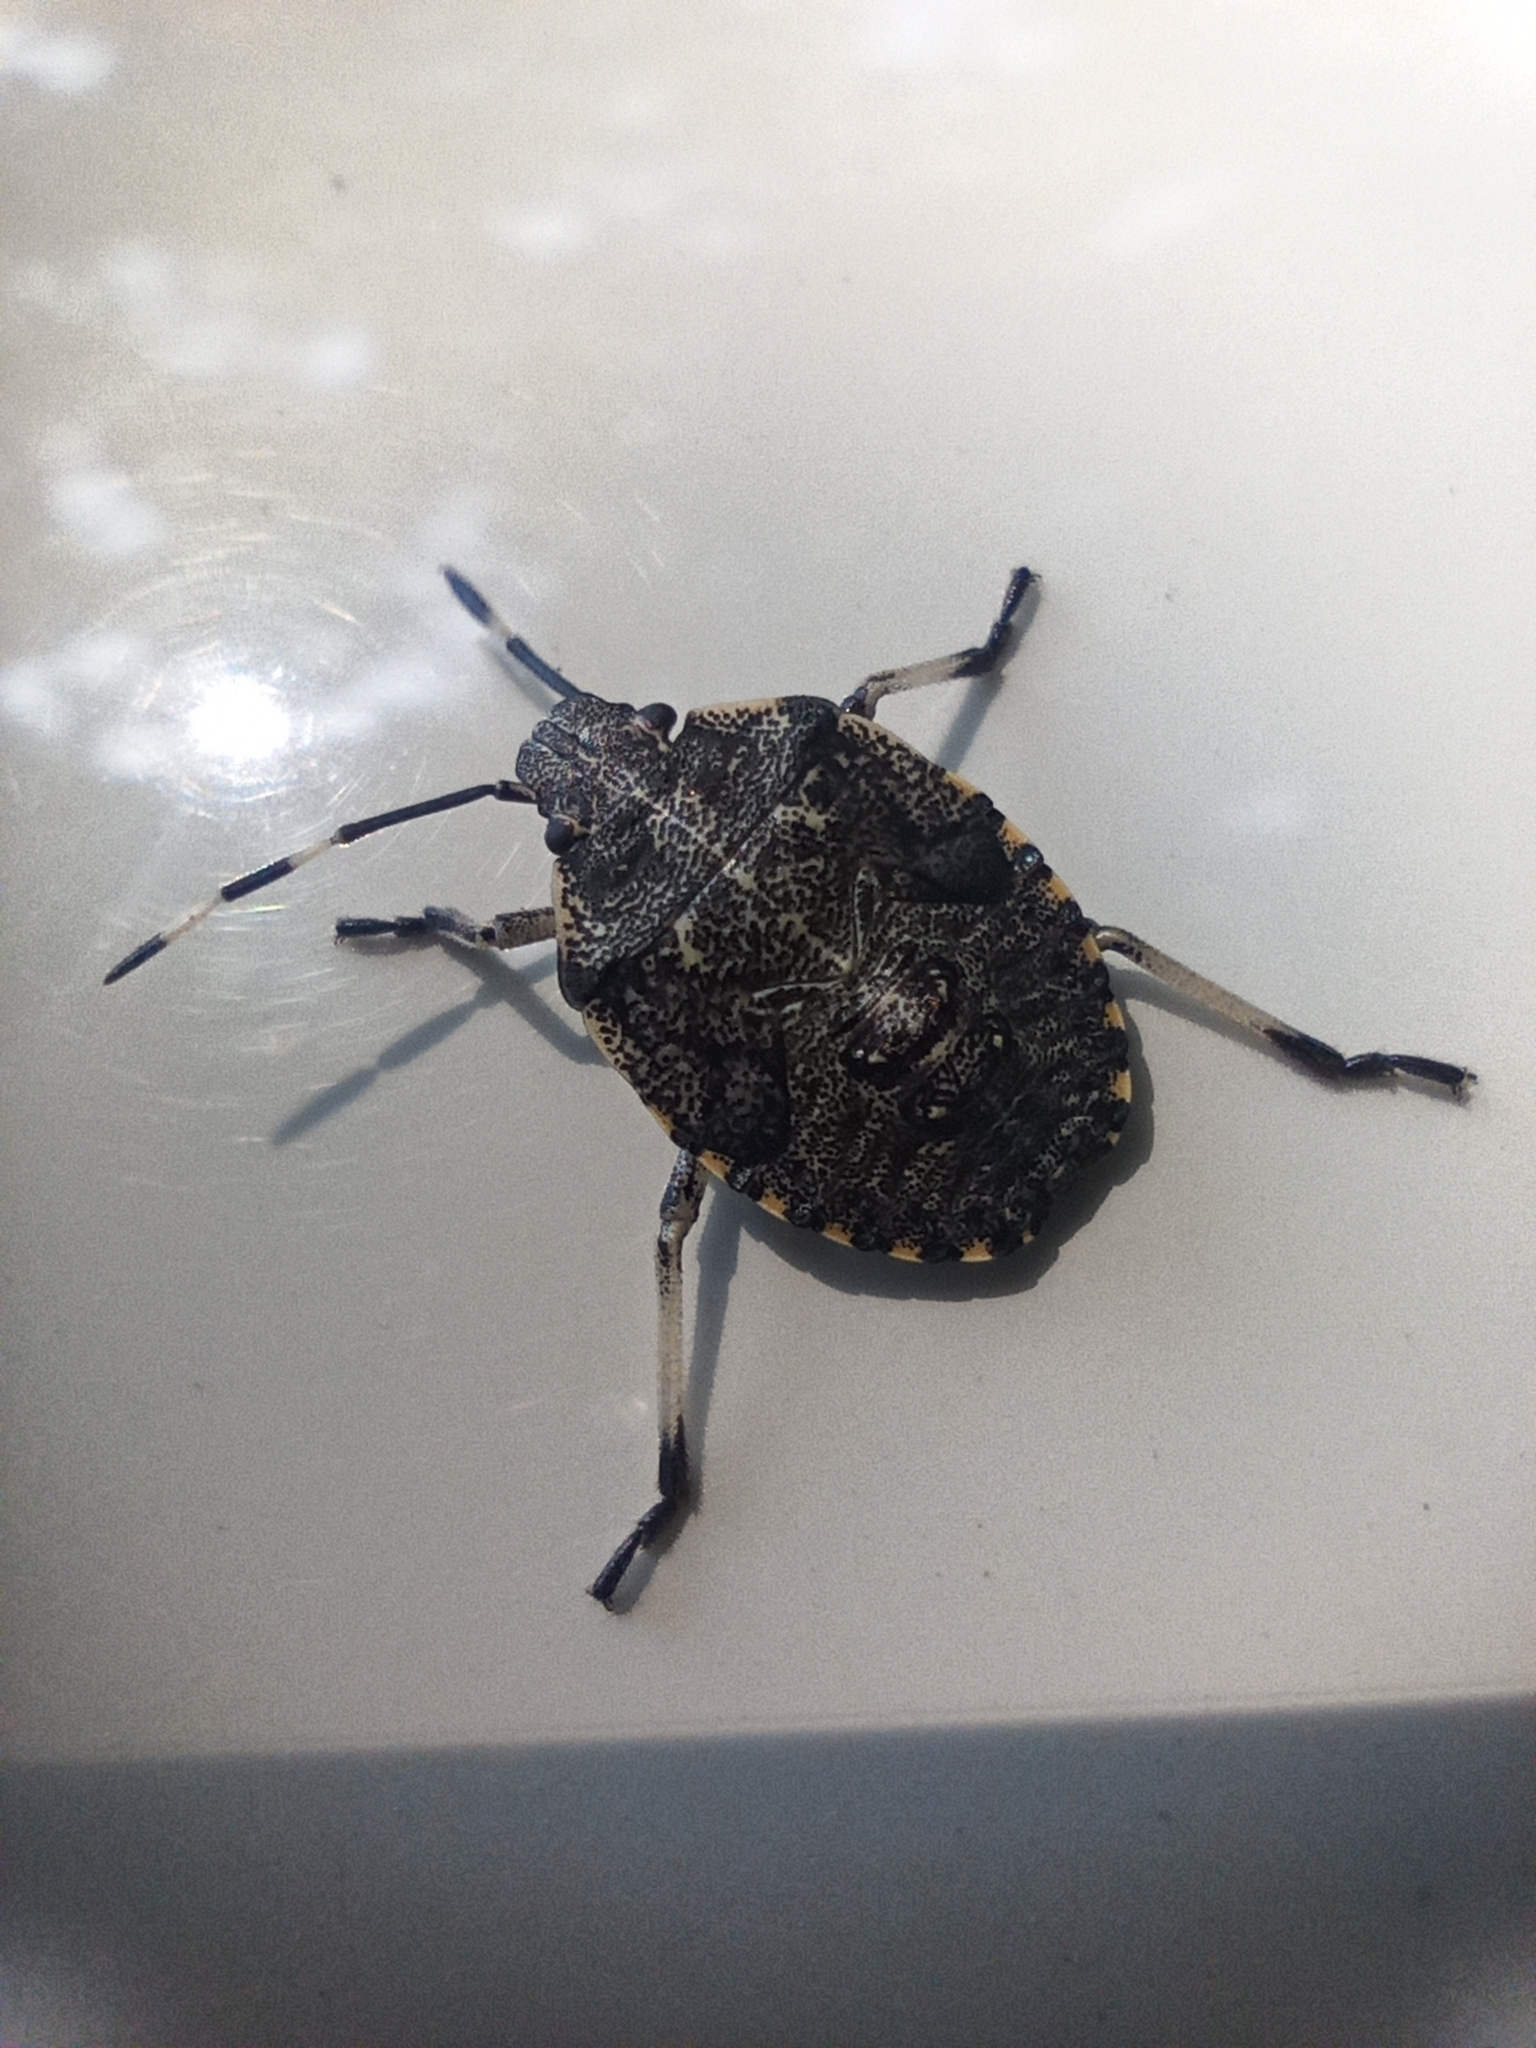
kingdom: Animalia
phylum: Arthropoda
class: Insecta
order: Hemiptera
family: Pentatomidae
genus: Rhaphigaster
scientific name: Rhaphigaster nebulosa
